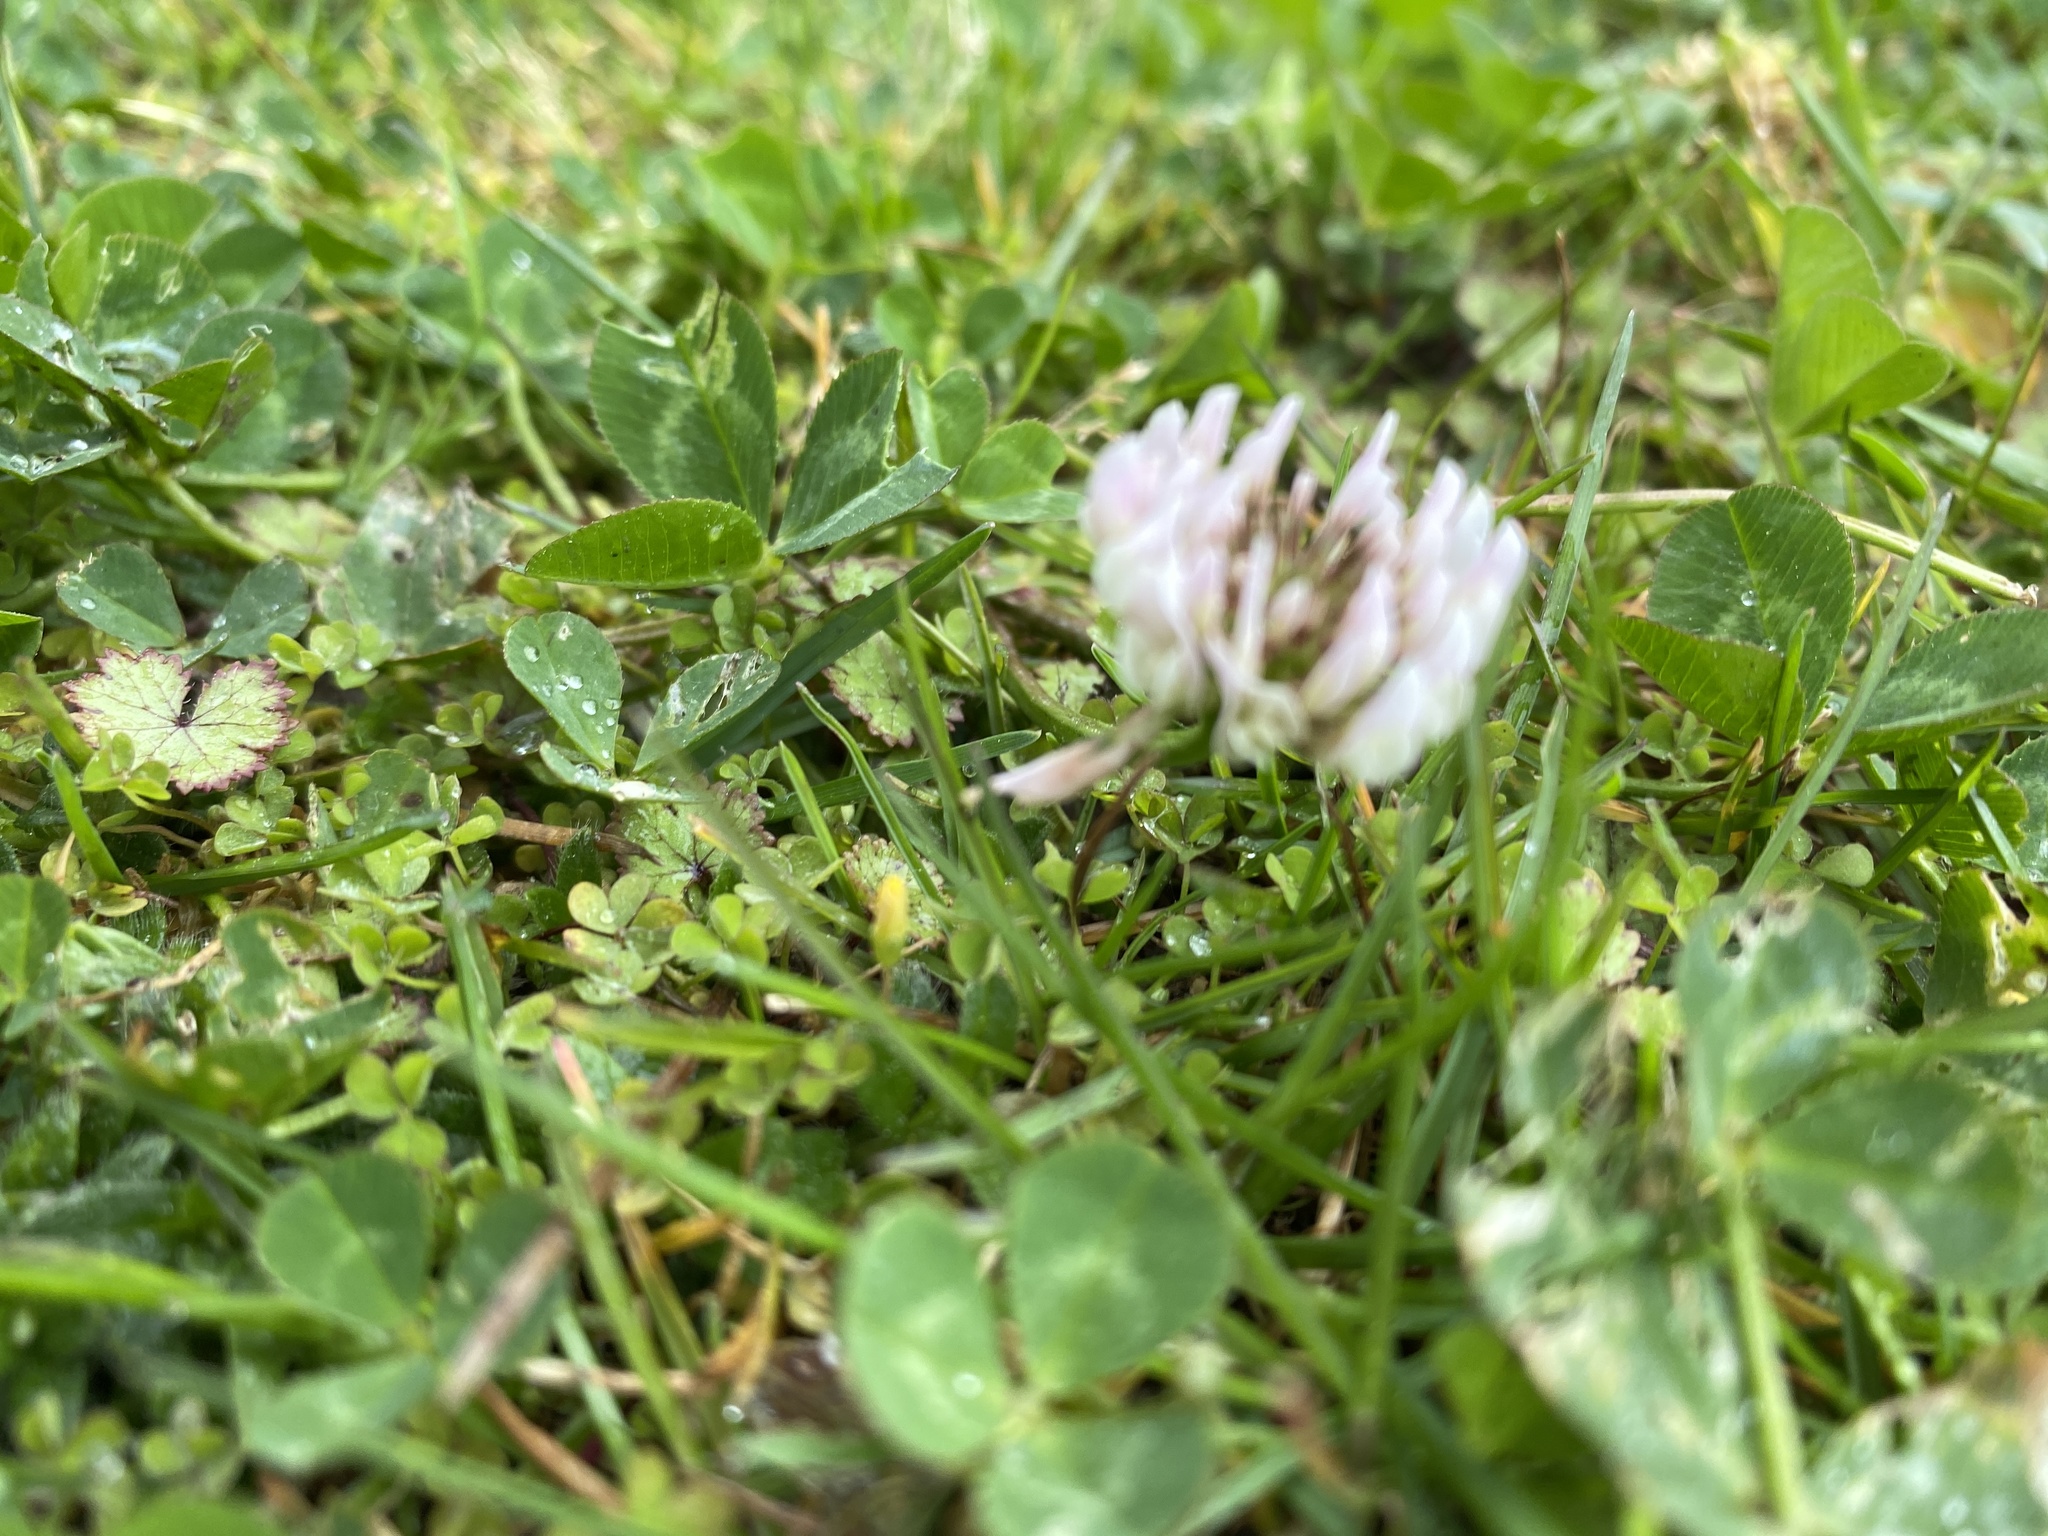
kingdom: Plantae
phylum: Tracheophyta
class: Magnoliopsida
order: Fabales
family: Fabaceae
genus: Trifolium
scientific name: Trifolium repens
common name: White clover
